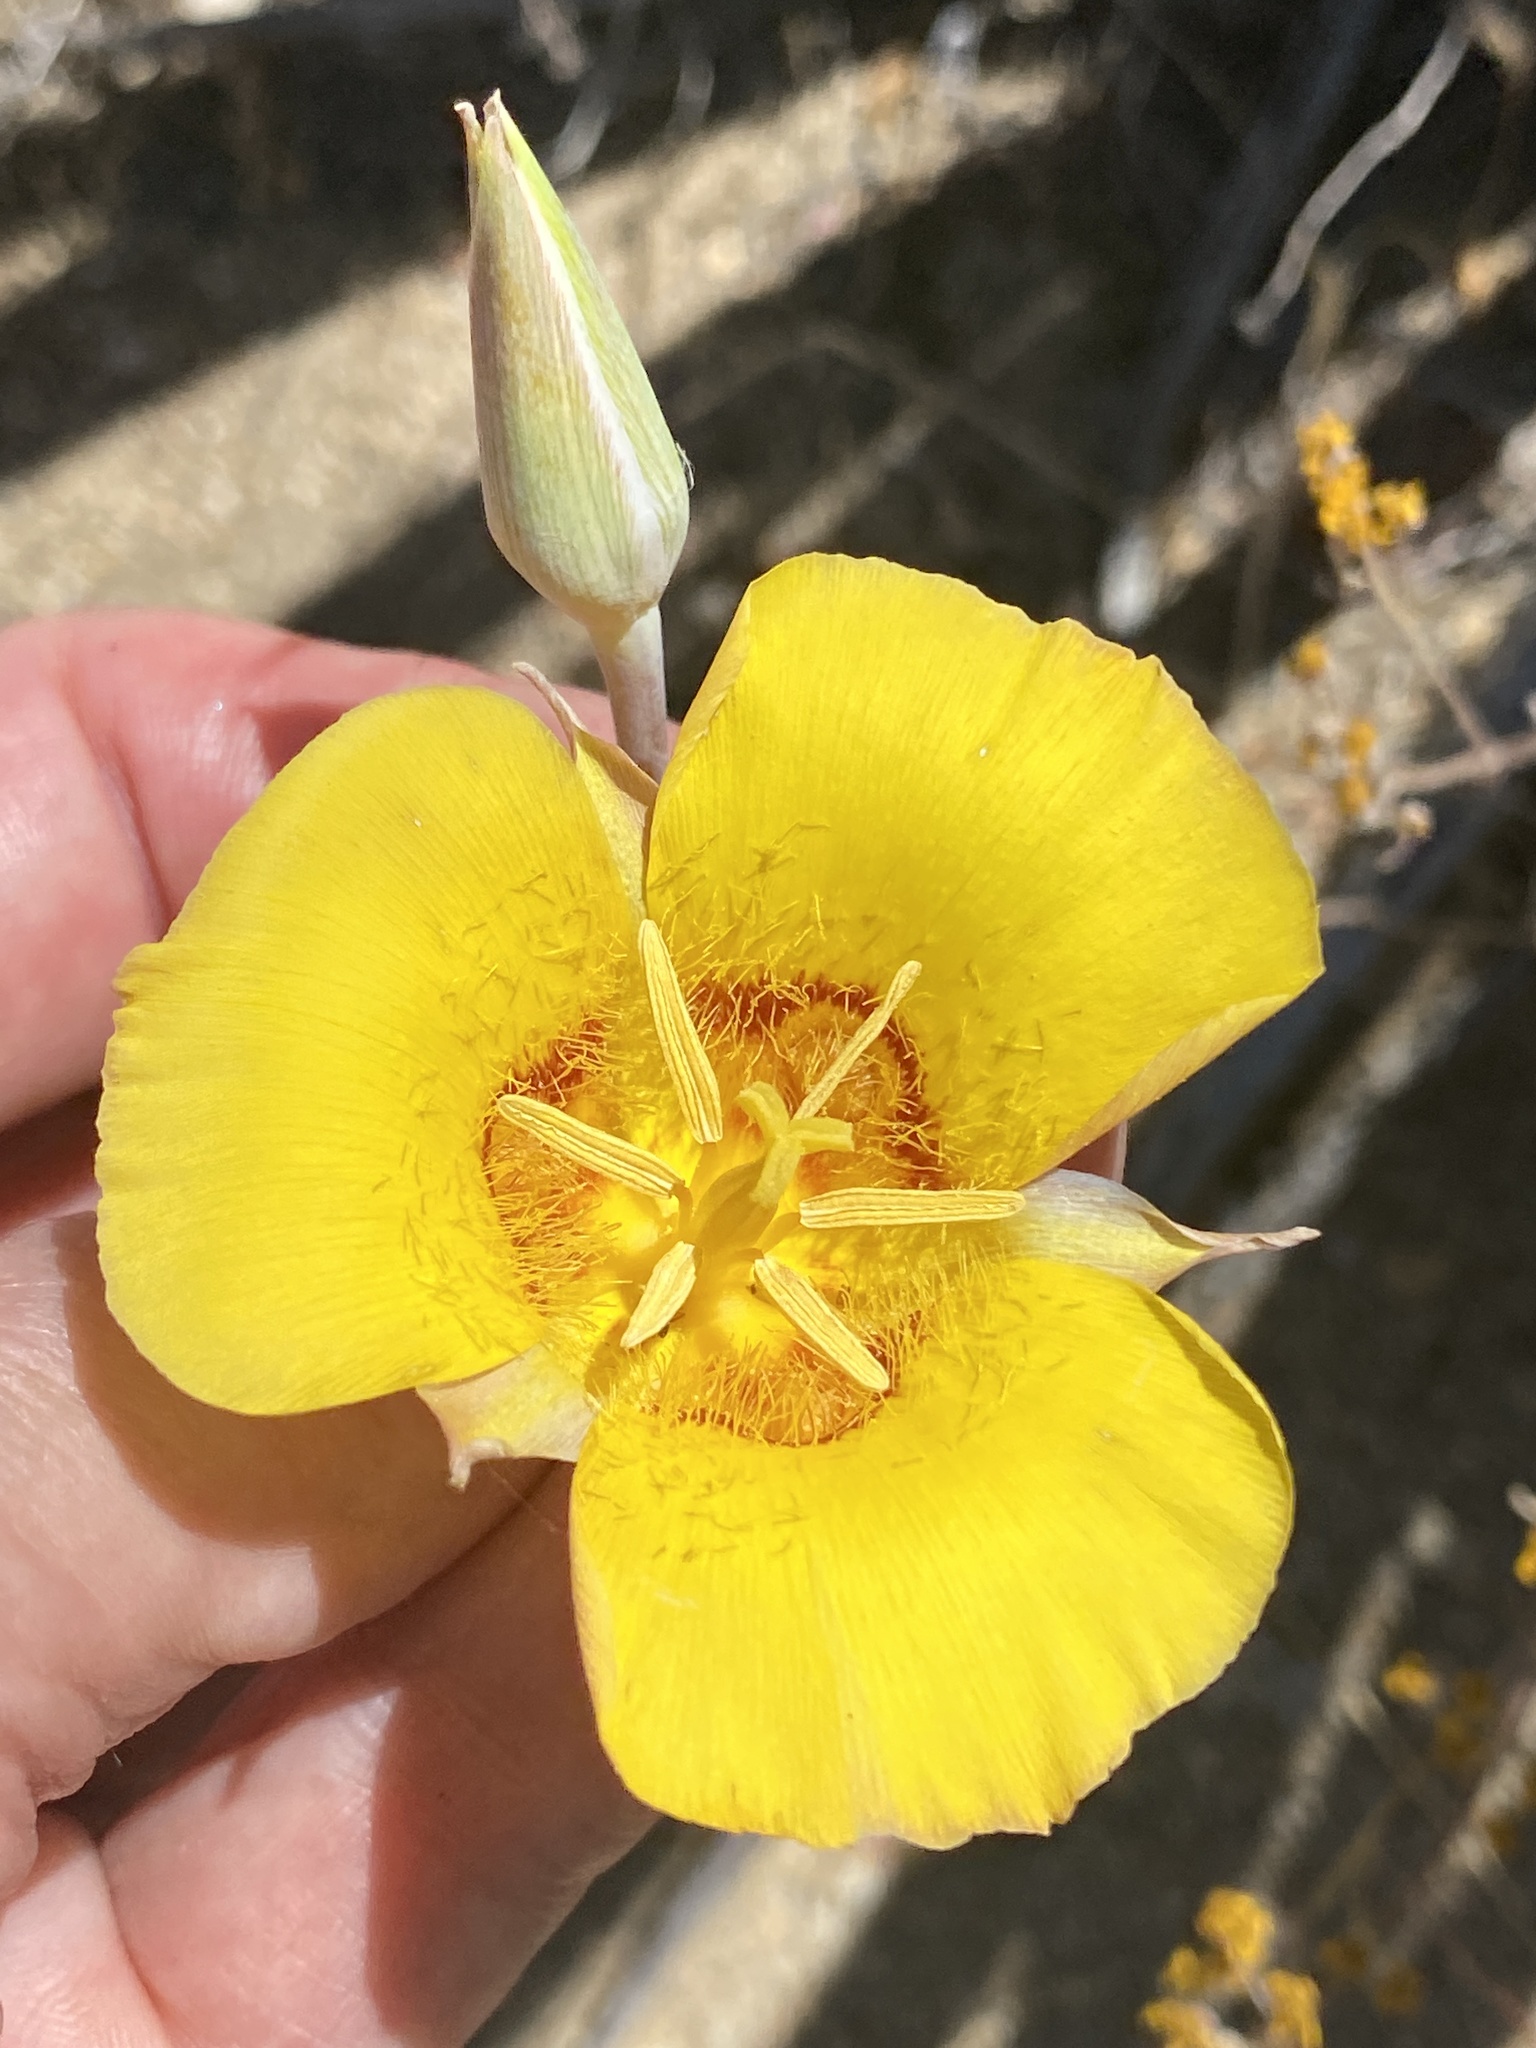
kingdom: Plantae
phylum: Tracheophyta
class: Liliopsida
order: Liliales
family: Liliaceae
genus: Calochortus
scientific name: Calochortus concolor
